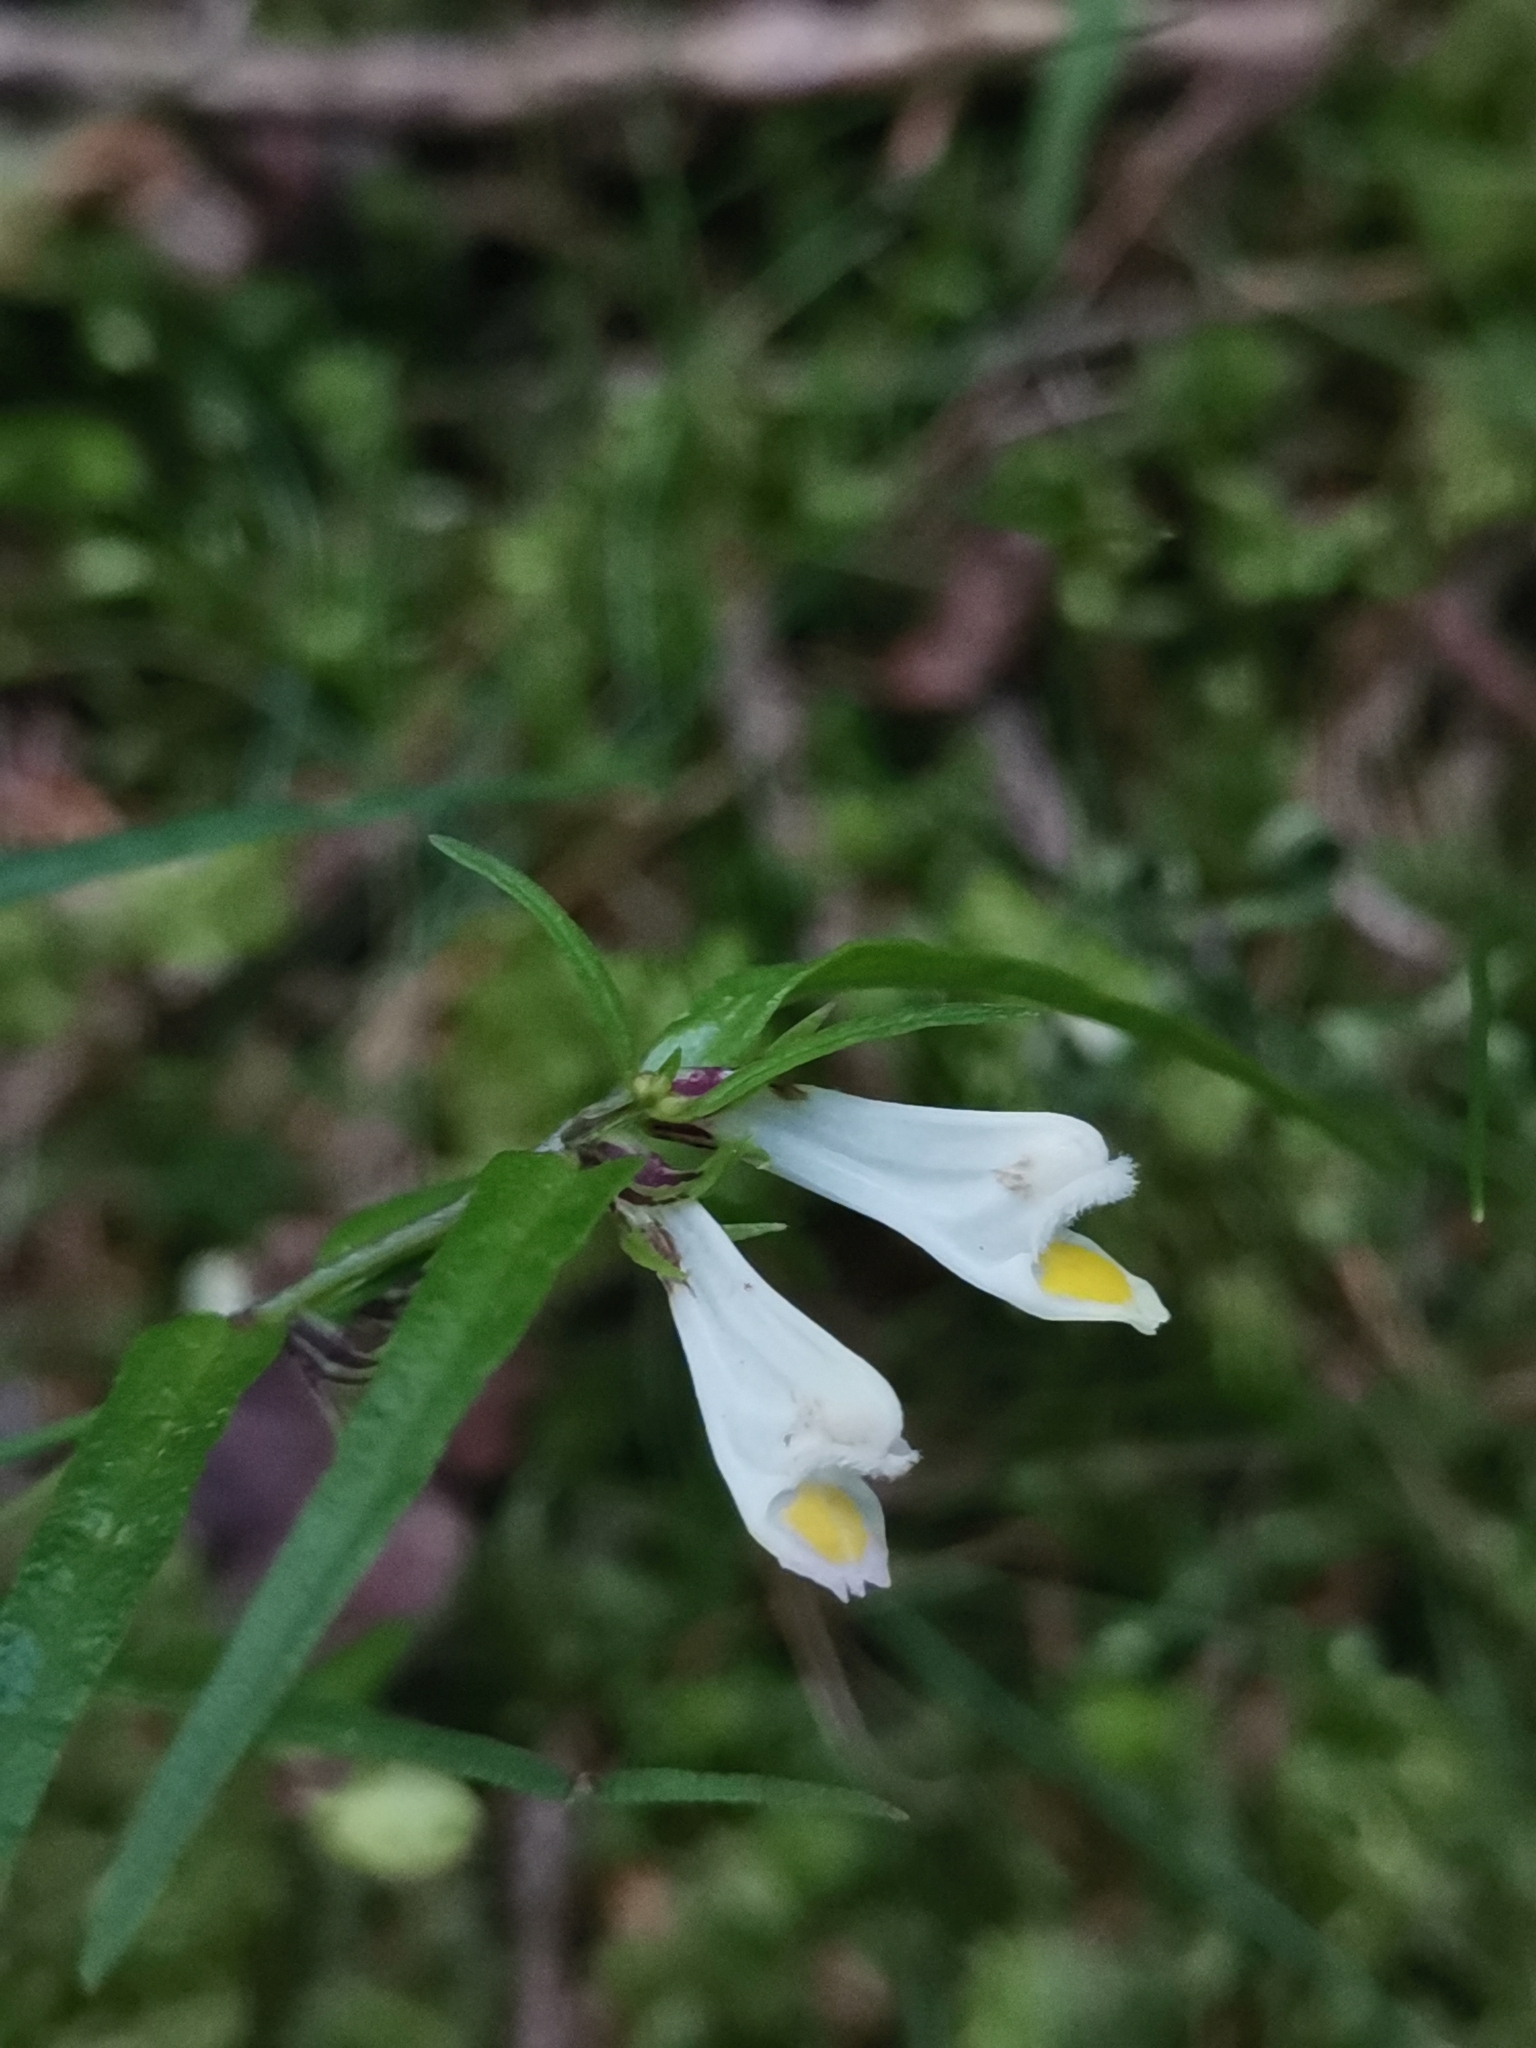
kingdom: Plantae
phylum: Tracheophyta
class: Magnoliopsida
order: Lamiales
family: Orobanchaceae
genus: Melampyrum
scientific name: Melampyrum pratense
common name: Common cow-wheat
